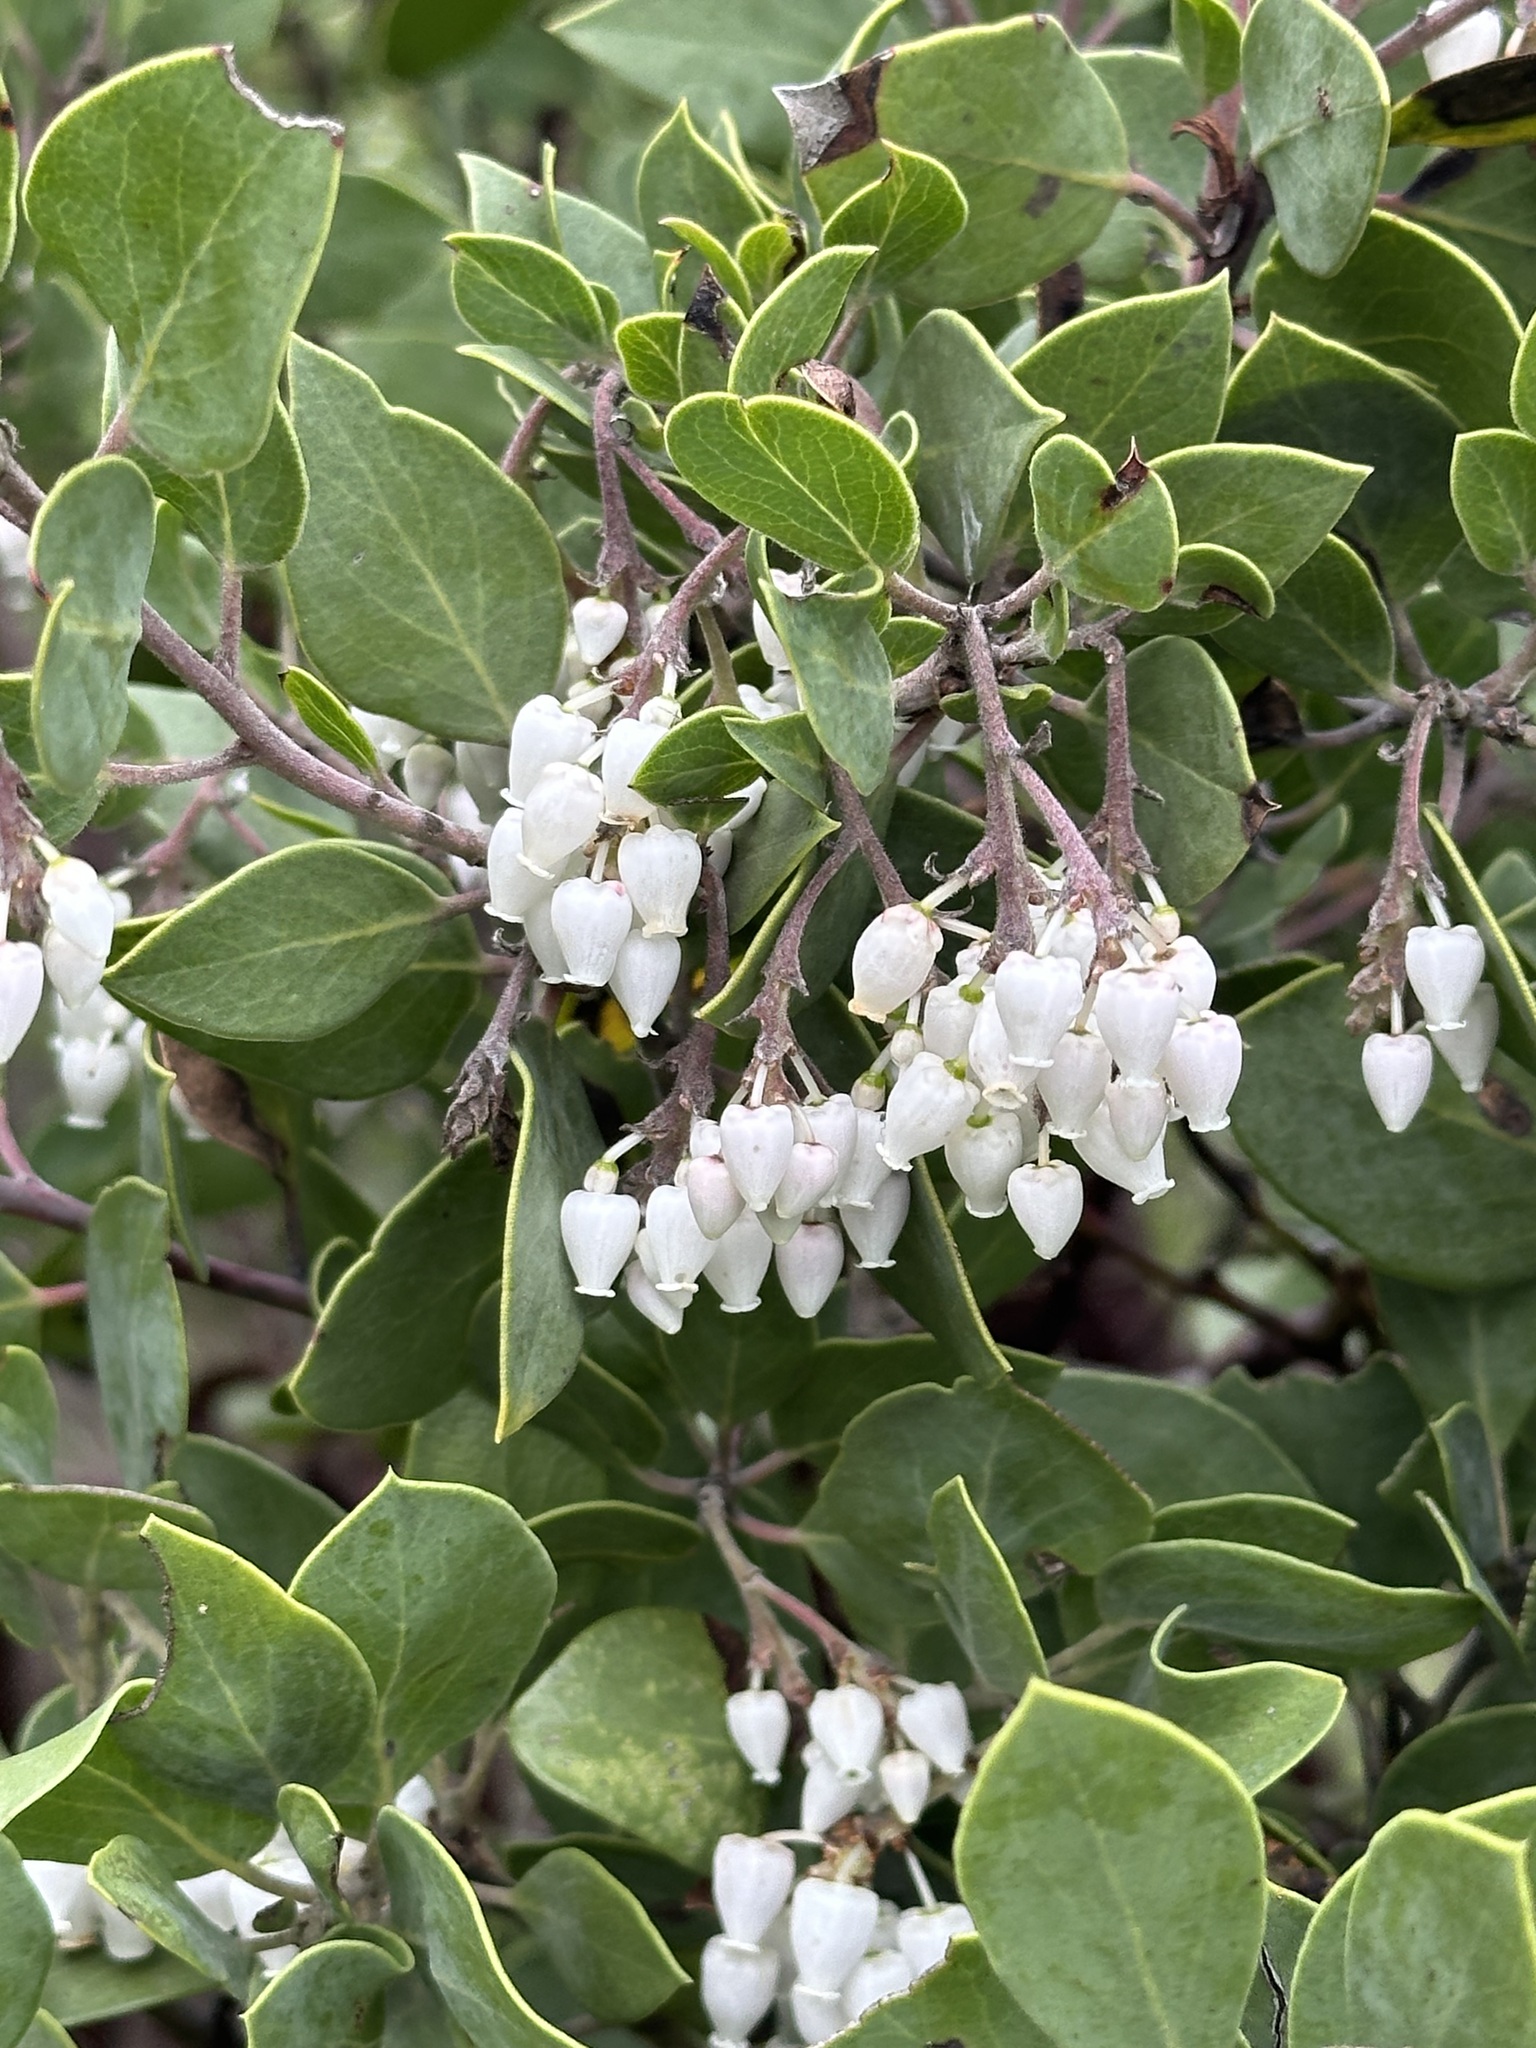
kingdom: Plantae
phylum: Tracheophyta
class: Magnoliopsida
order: Ericales
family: Ericaceae
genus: Arctostaphylos
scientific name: Arctostaphylos manzanita
